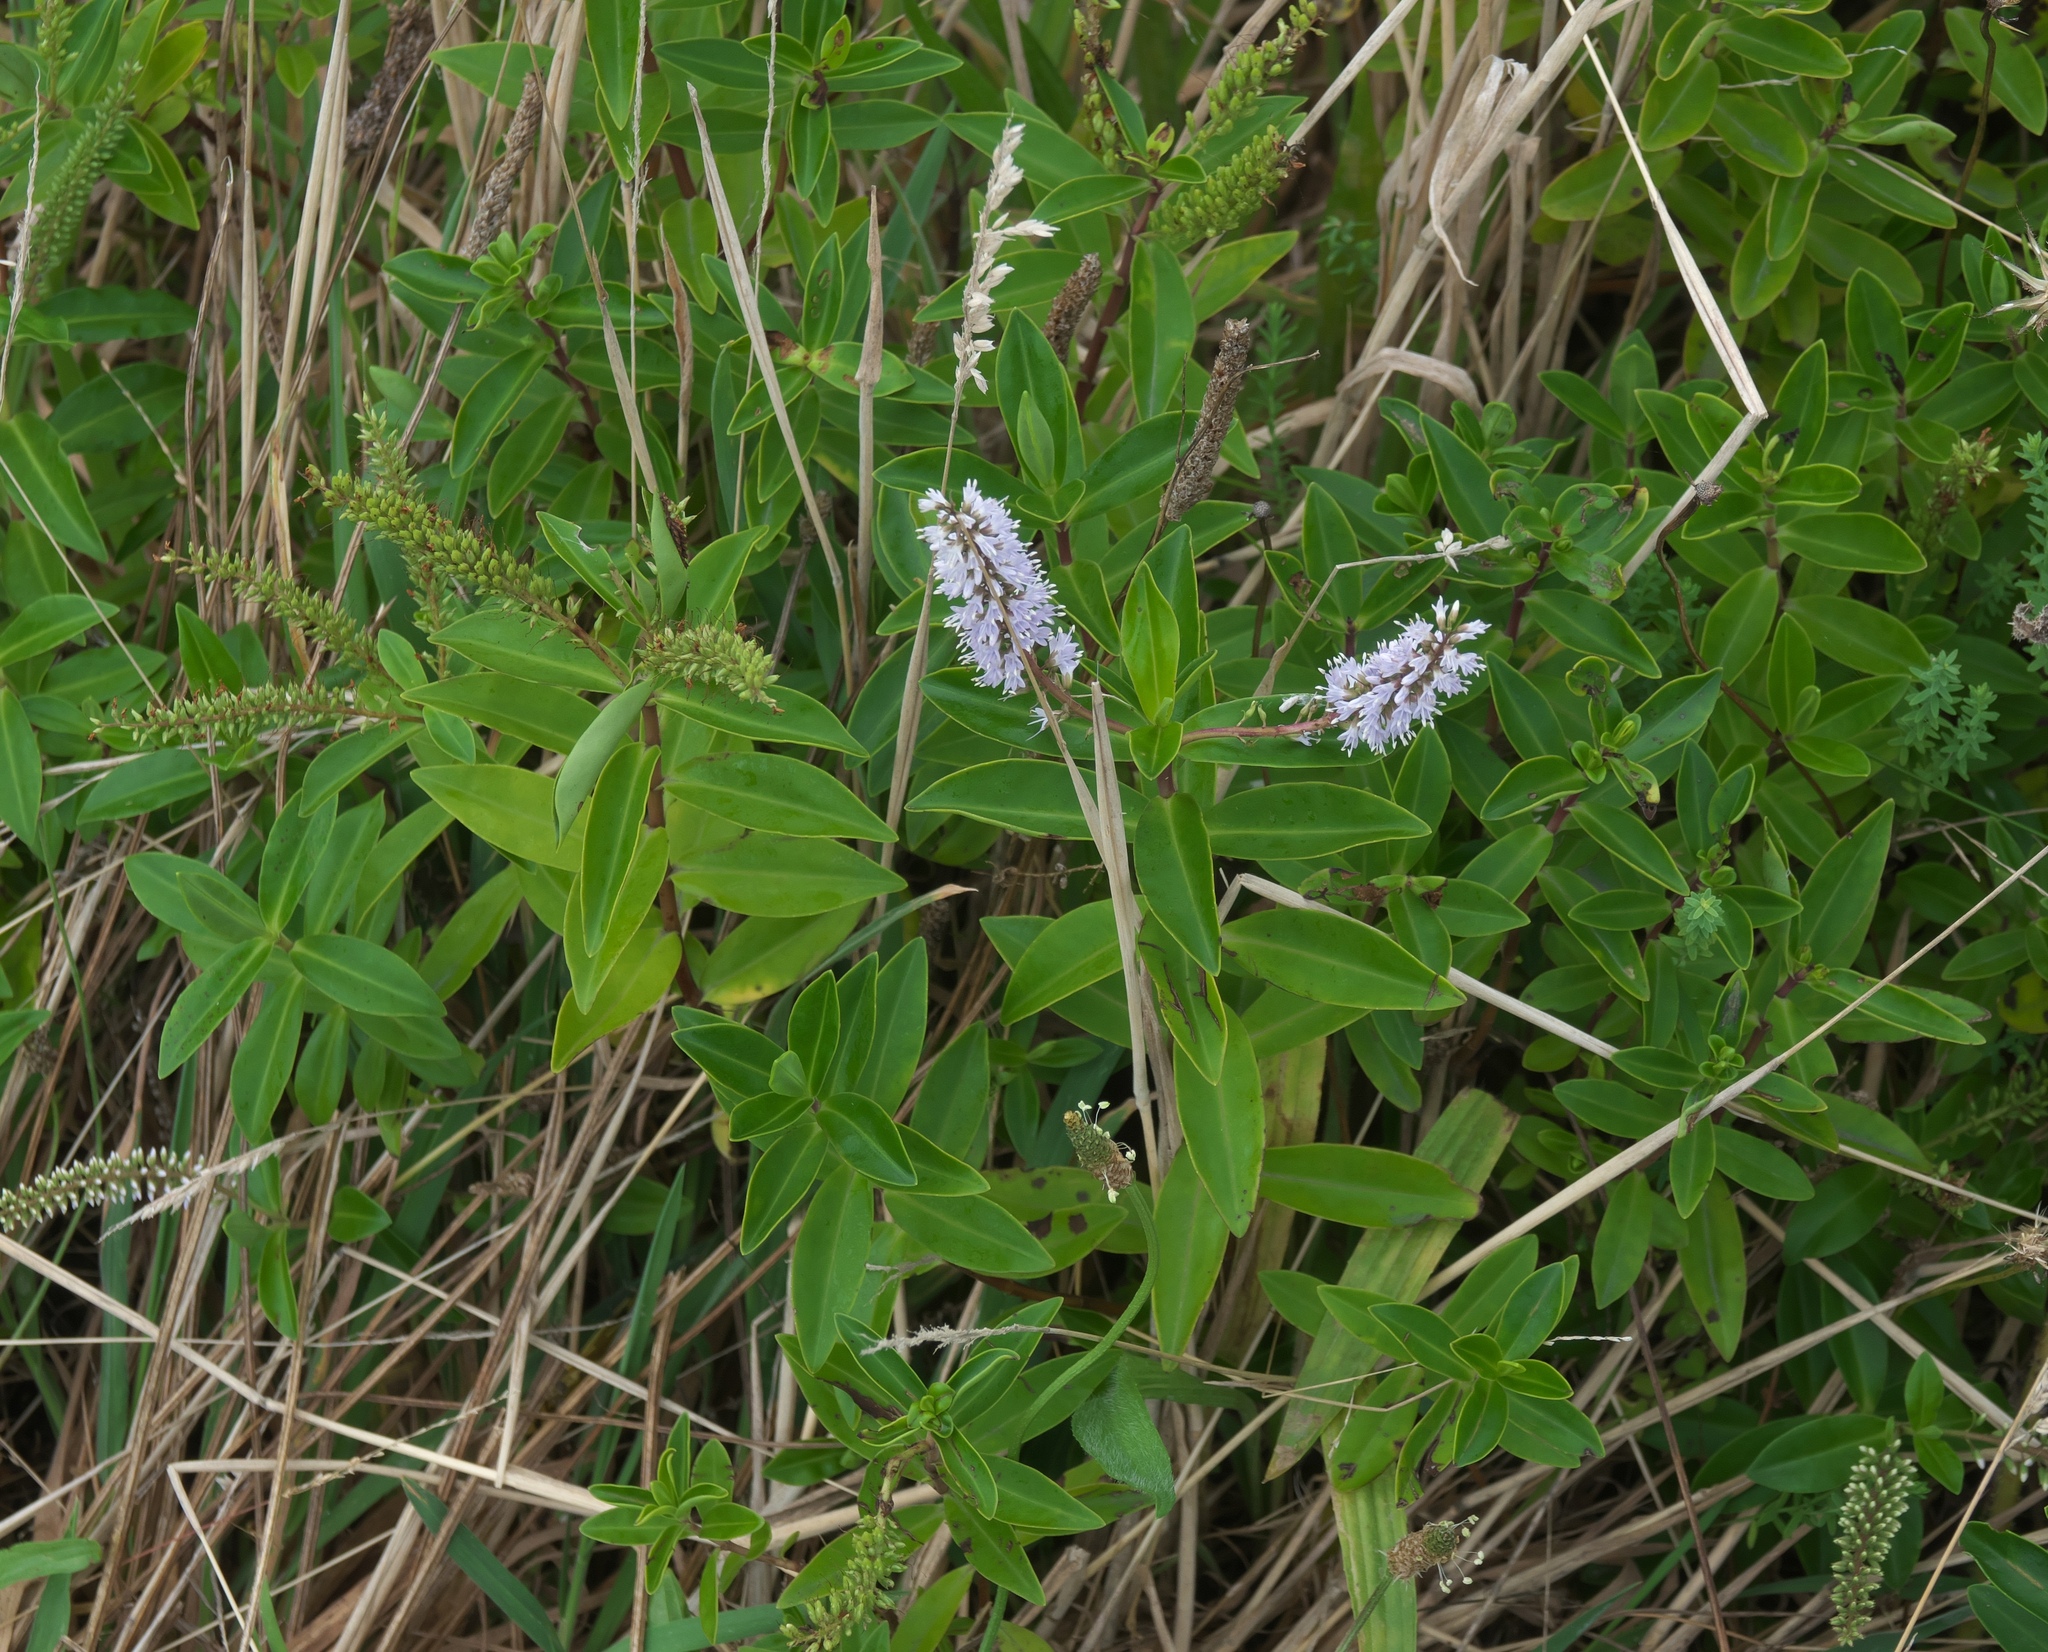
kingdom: Plantae
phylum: Tracheophyta
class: Magnoliopsida
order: Lamiales
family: Plantaginaceae
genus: Veronica
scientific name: Veronica stricta
